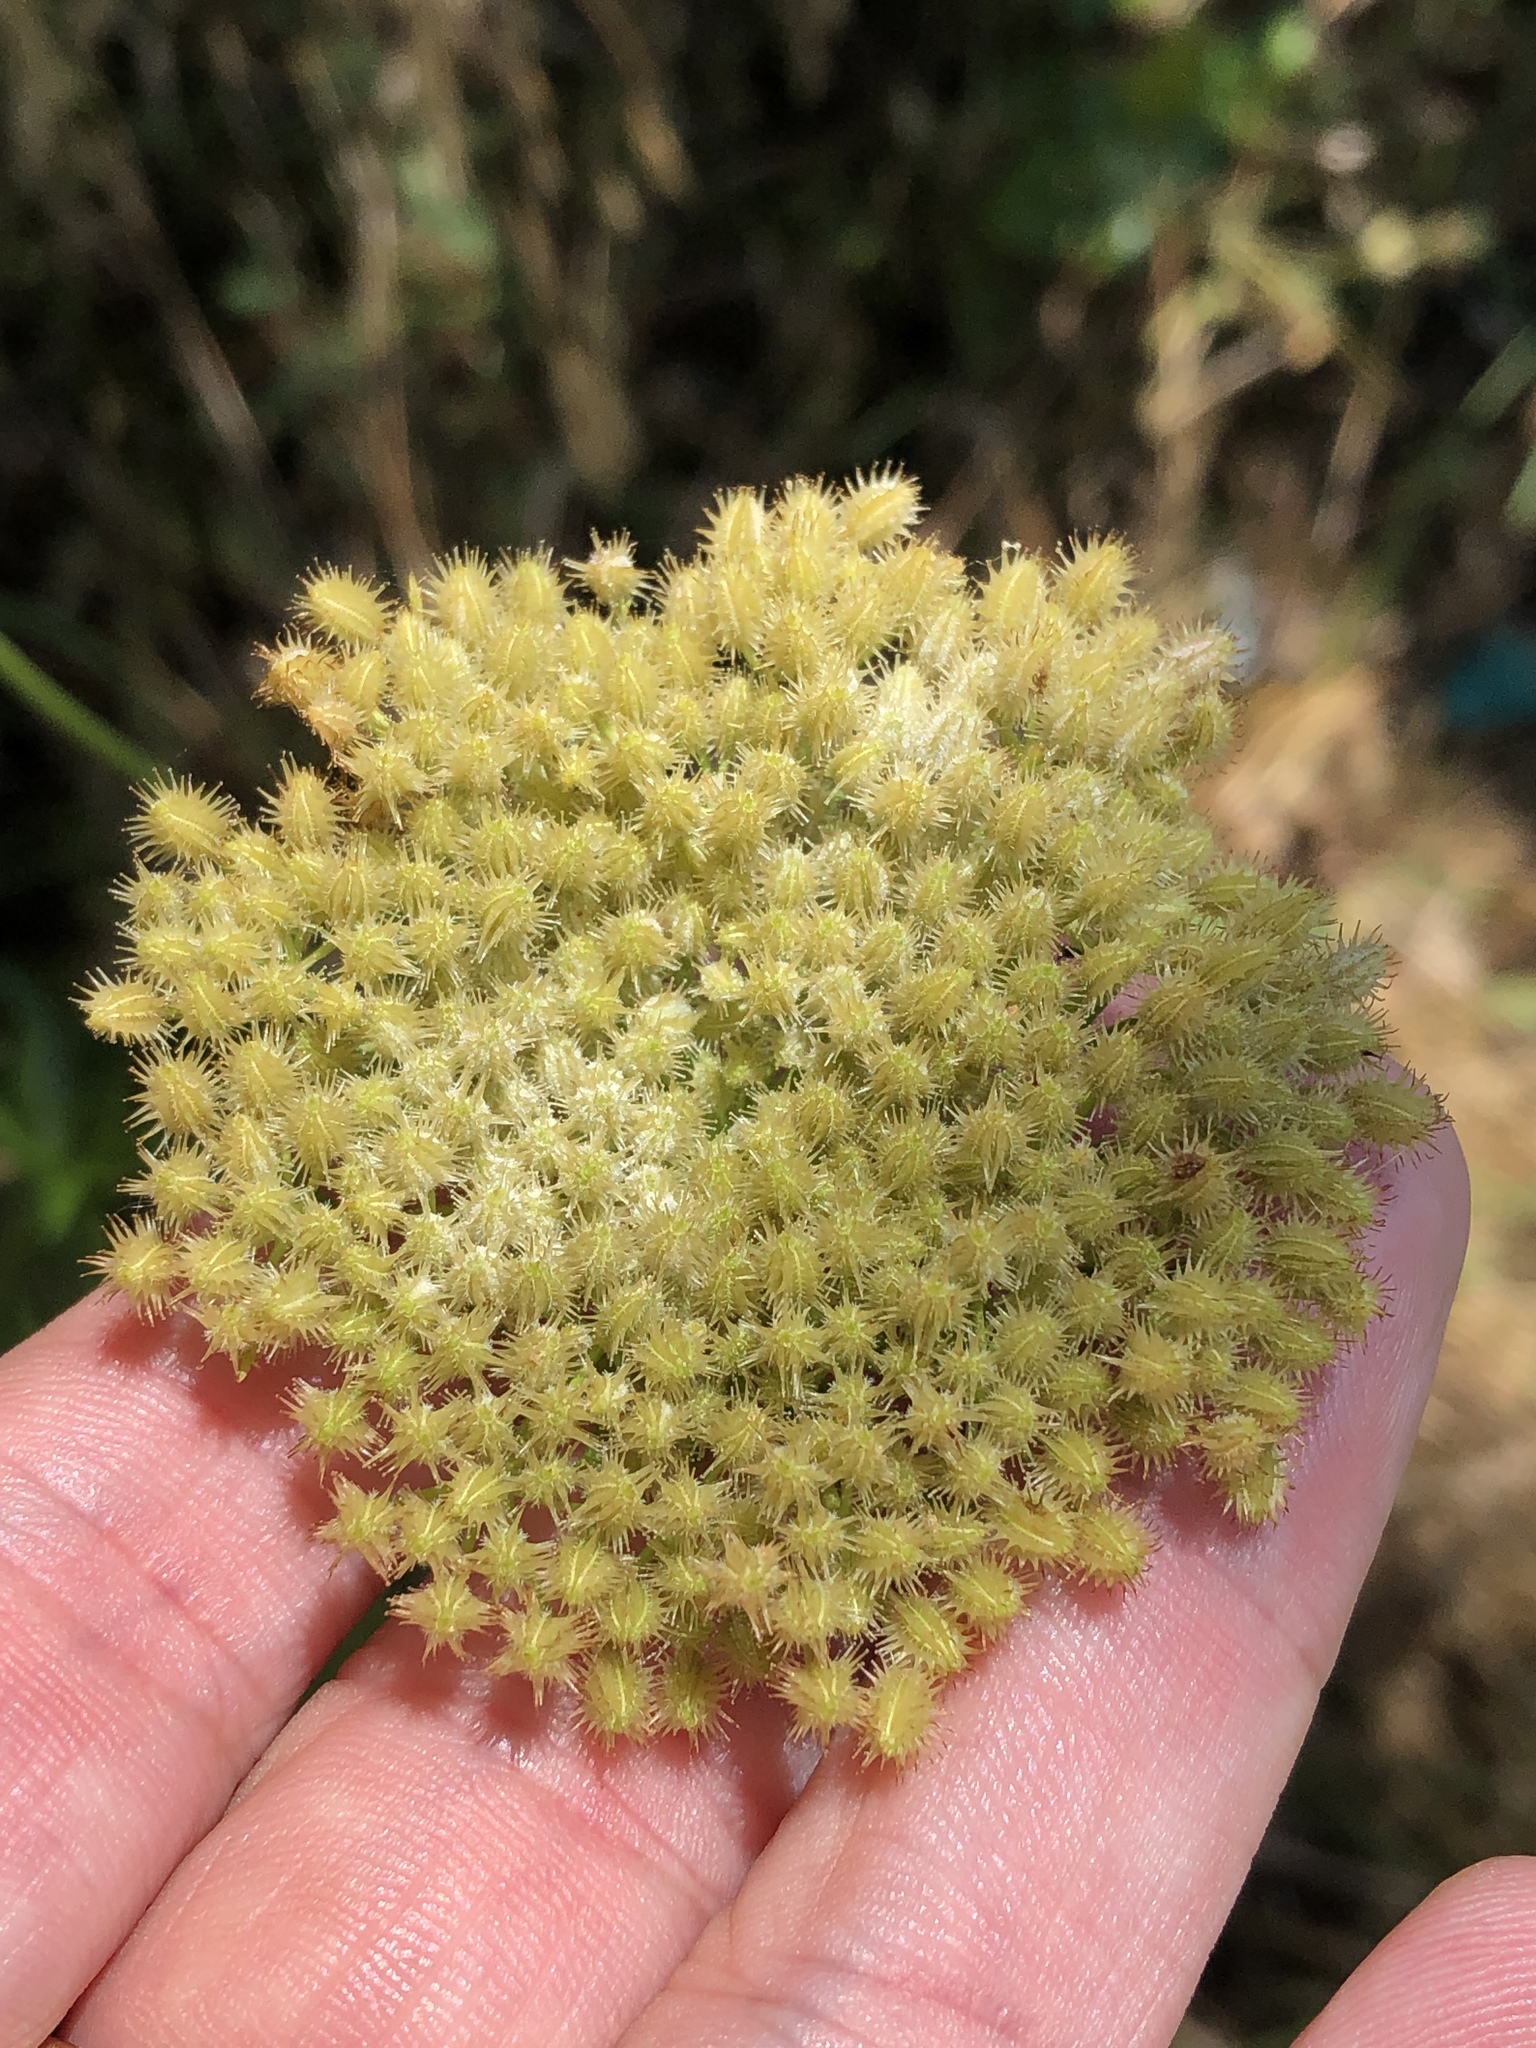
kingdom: Plantae
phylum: Tracheophyta
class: Magnoliopsida
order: Apiales
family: Apiaceae
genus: Daucus
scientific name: Daucus pusillus
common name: Southwest wild carrot
